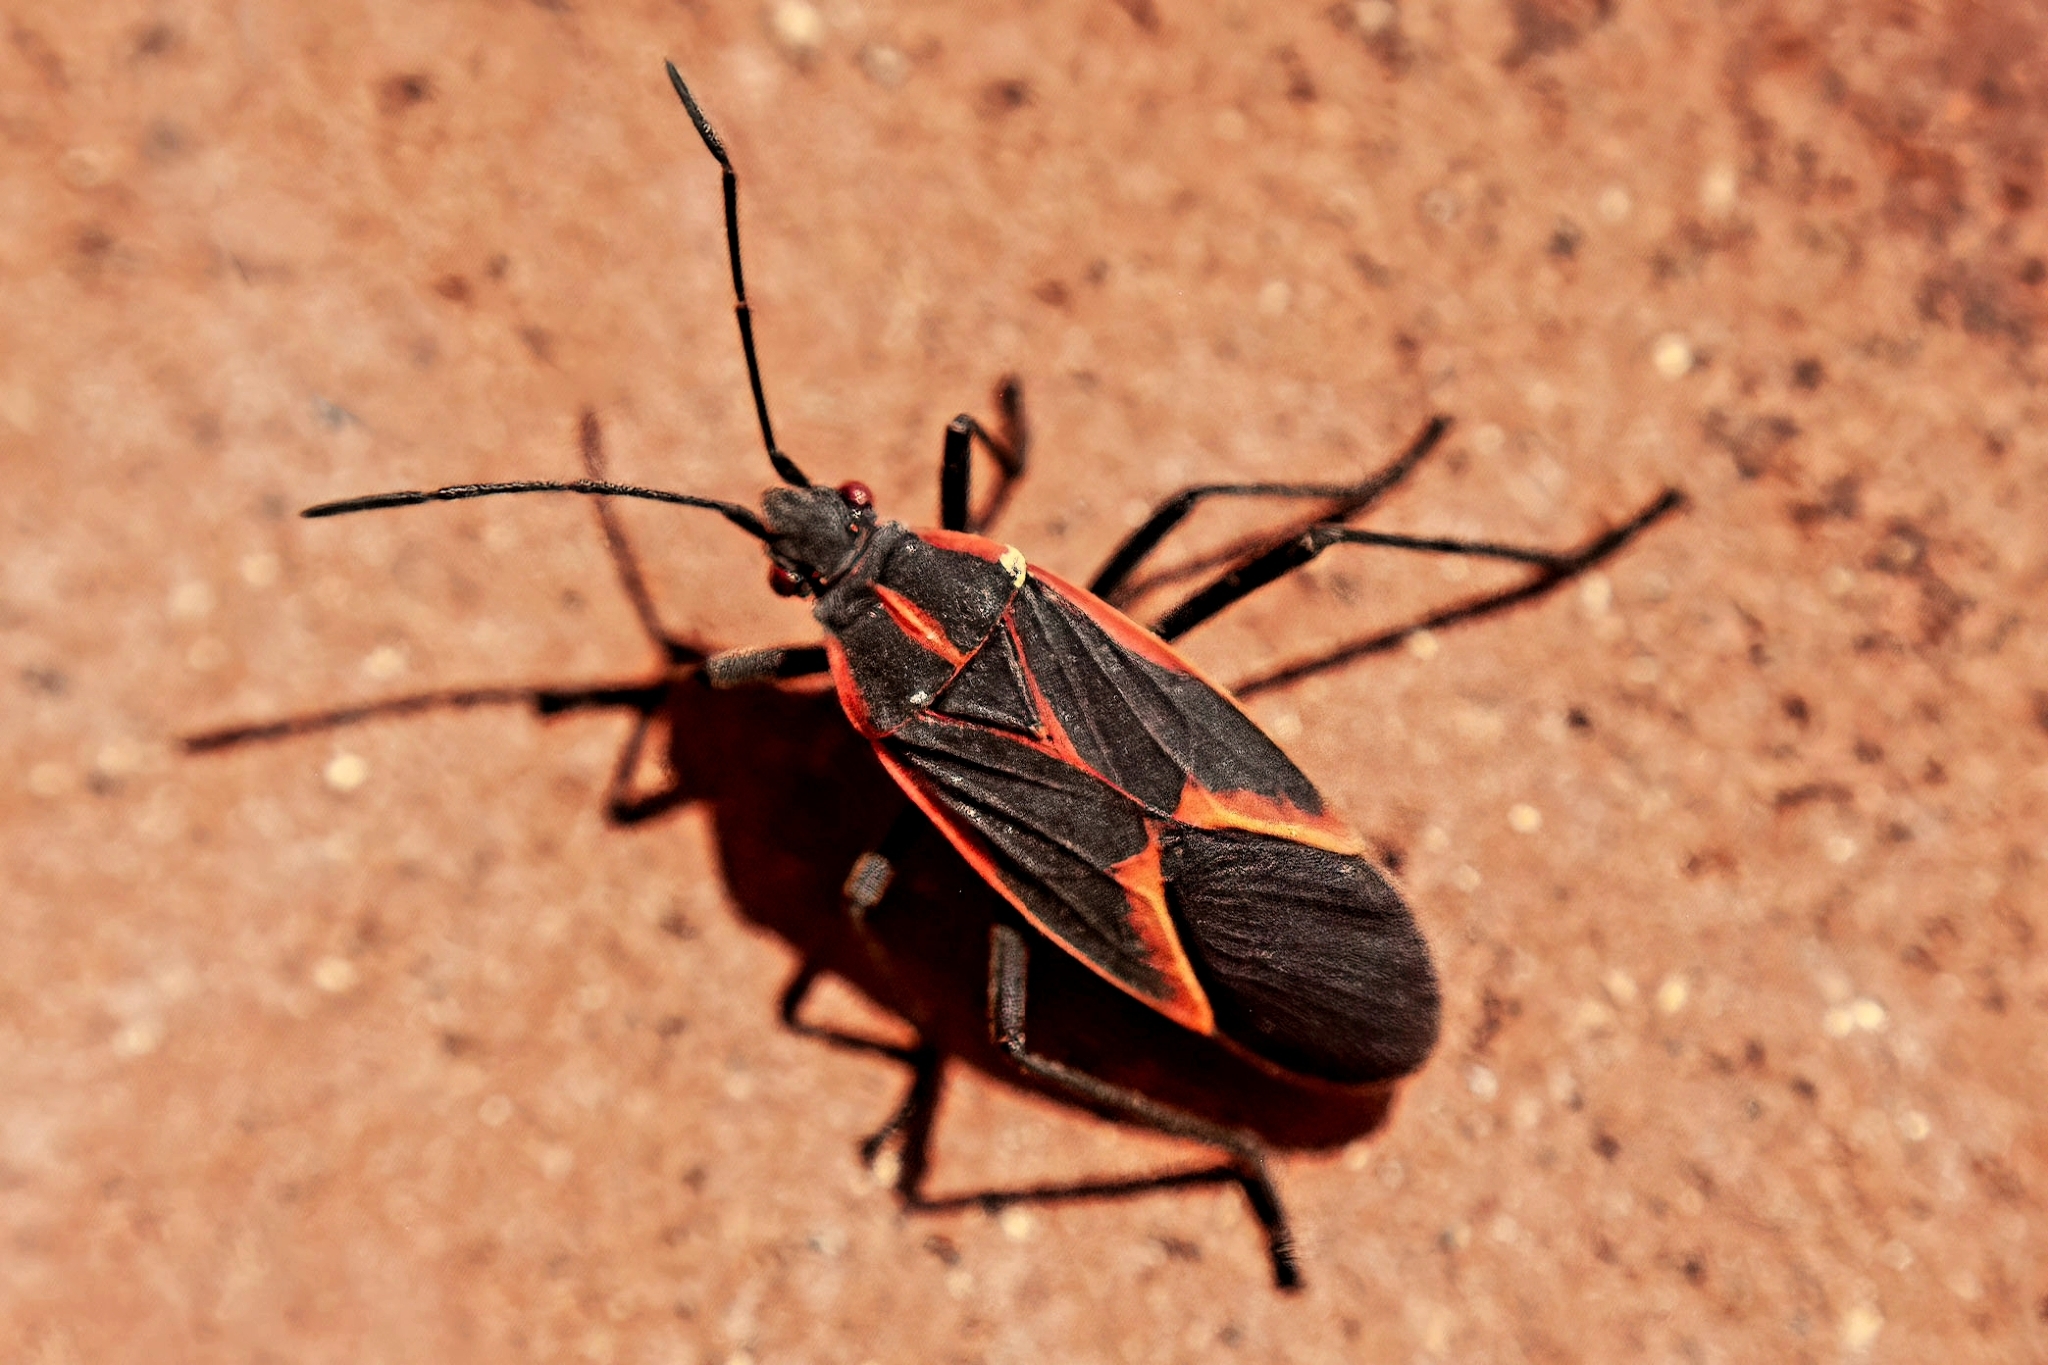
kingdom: Animalia
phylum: Arthropoda
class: Insecta
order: Hemiptera
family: Rhopalidae
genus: Boisea
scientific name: Boisea trivittata
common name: Boxelder bug
